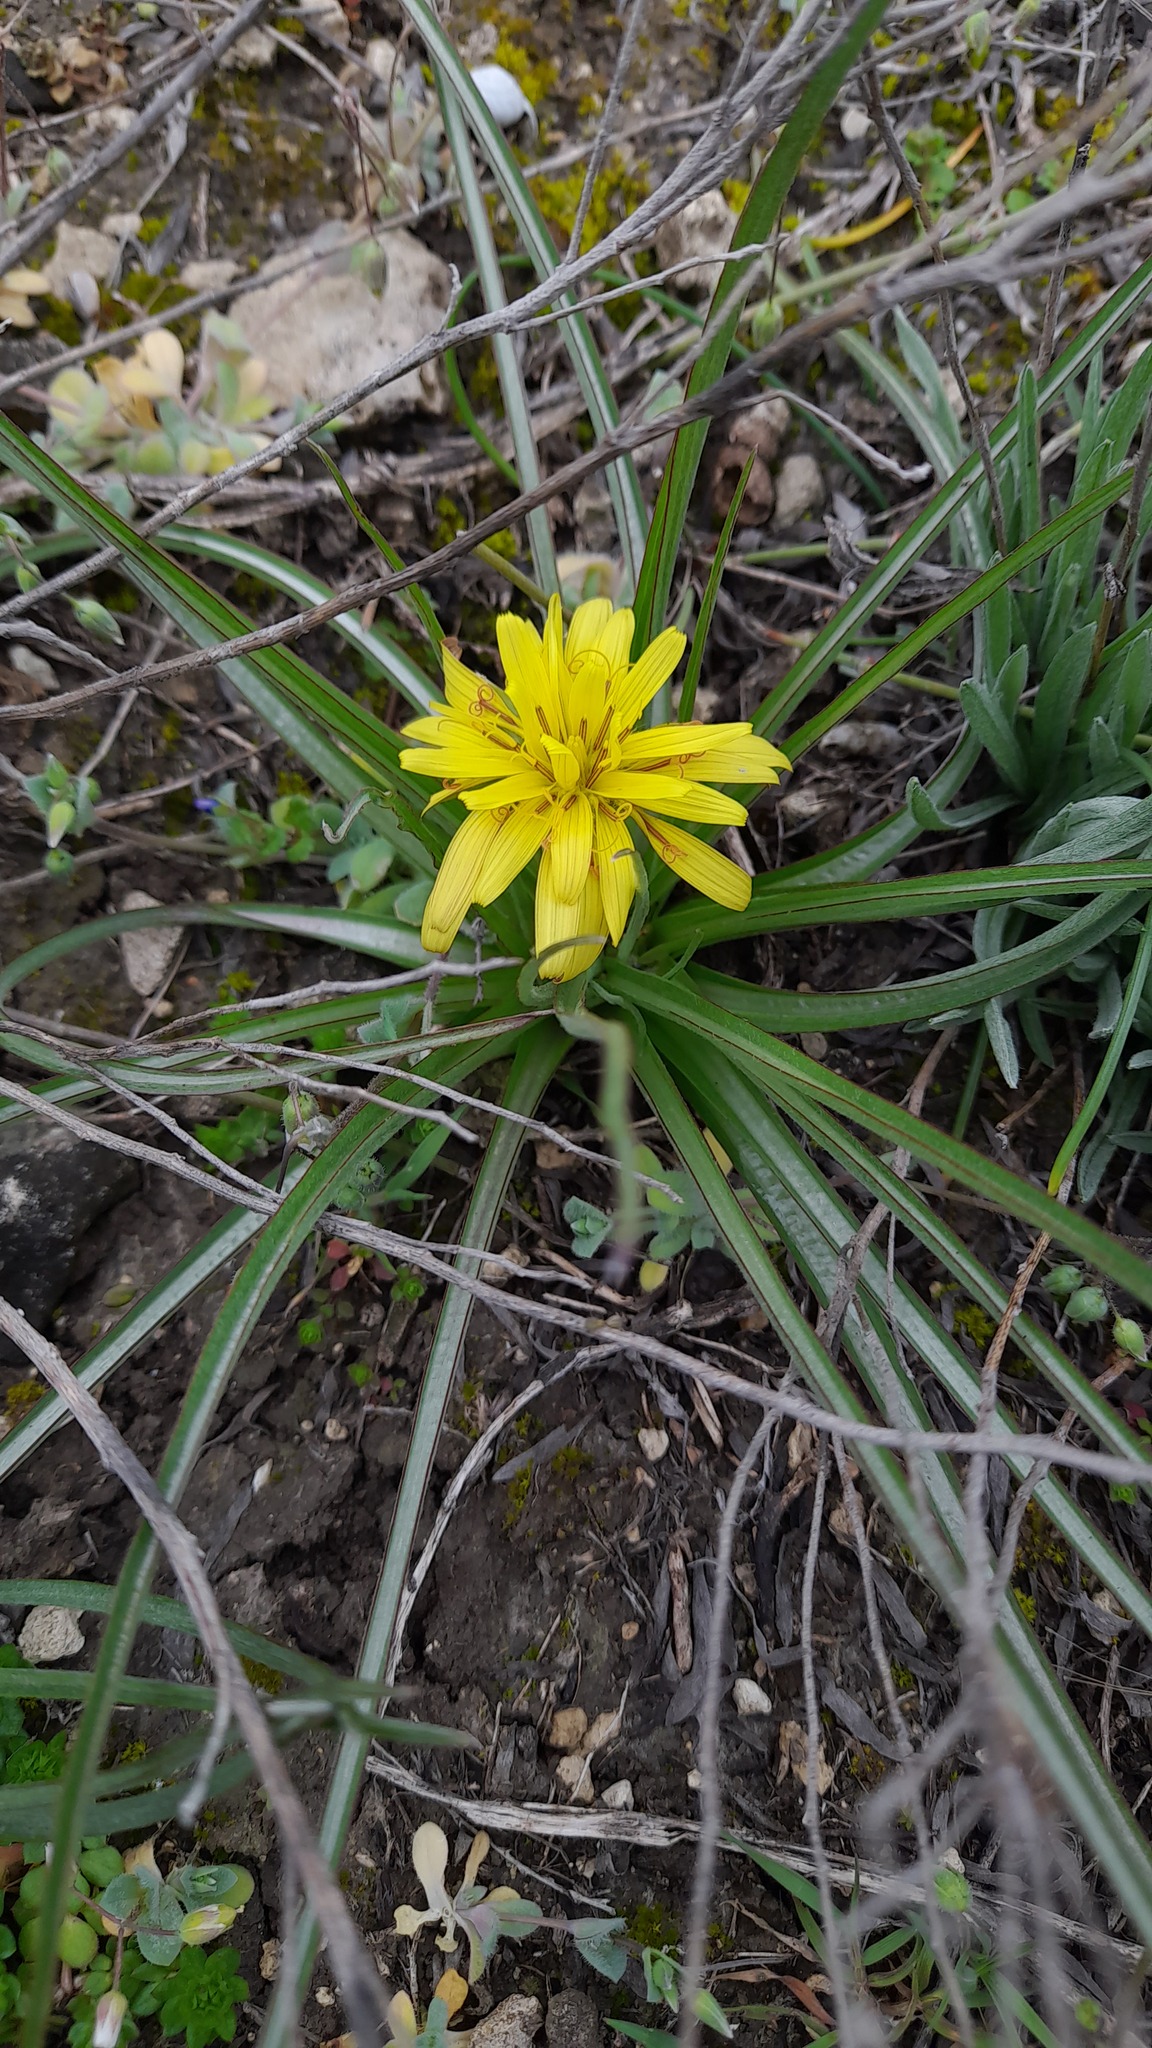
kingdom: Plantae
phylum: Tracheophyta
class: Magnoliopsida
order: Asterales
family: Asteraceae
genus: Candollea
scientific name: Candollea mollis
